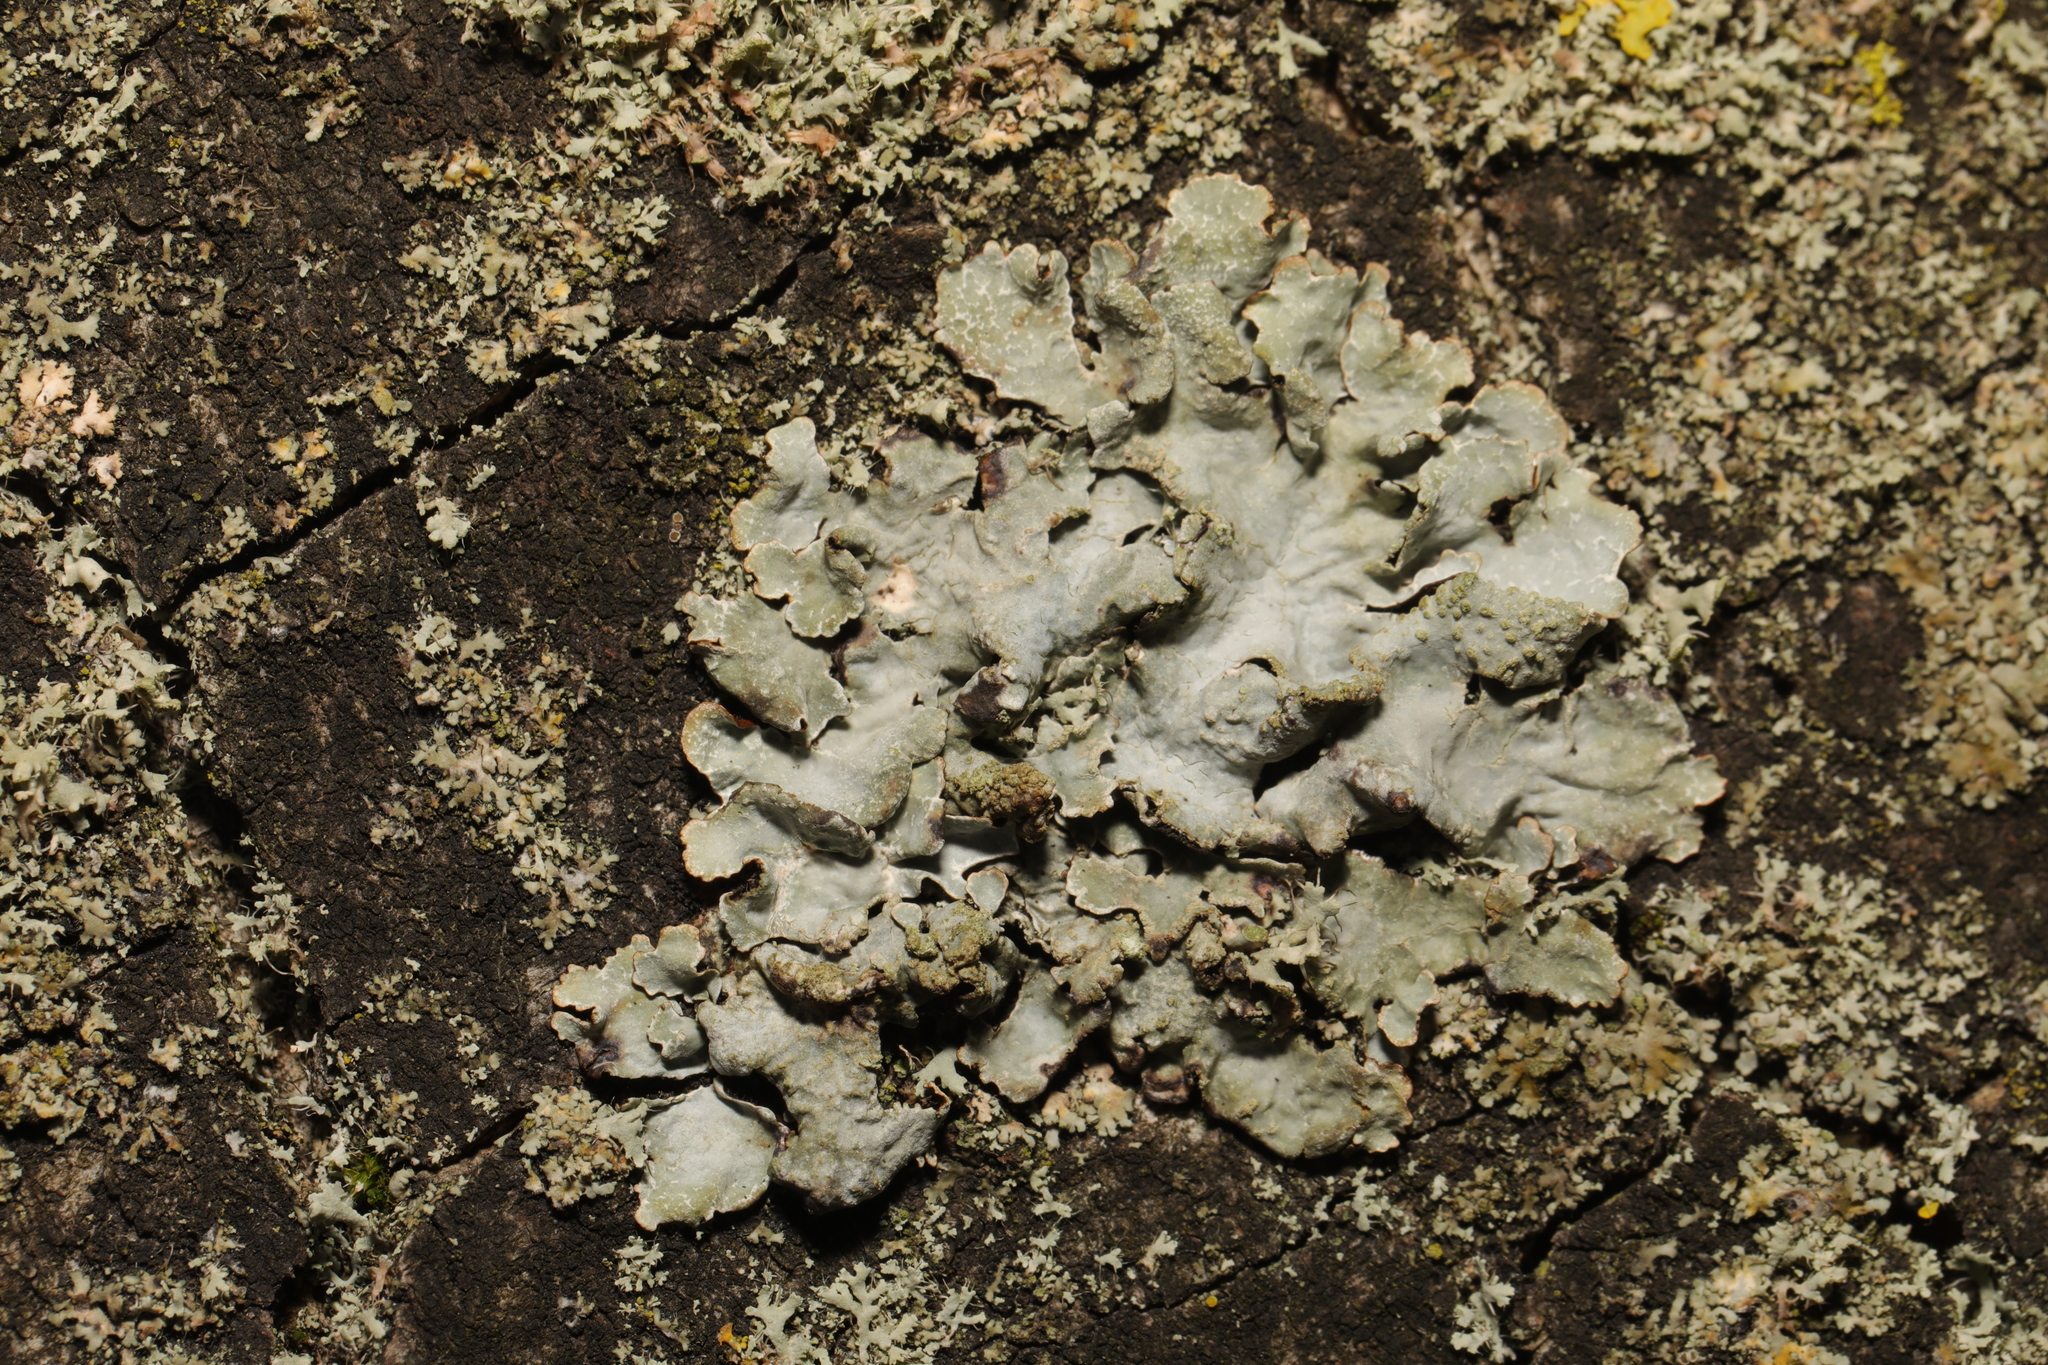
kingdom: Fungi
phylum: Ascomycota
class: Lecanoromycetes
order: Lecanorales
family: Parmeliaceae
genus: Parmelia
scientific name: Parmelia sulcata
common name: Netted shield lichen
